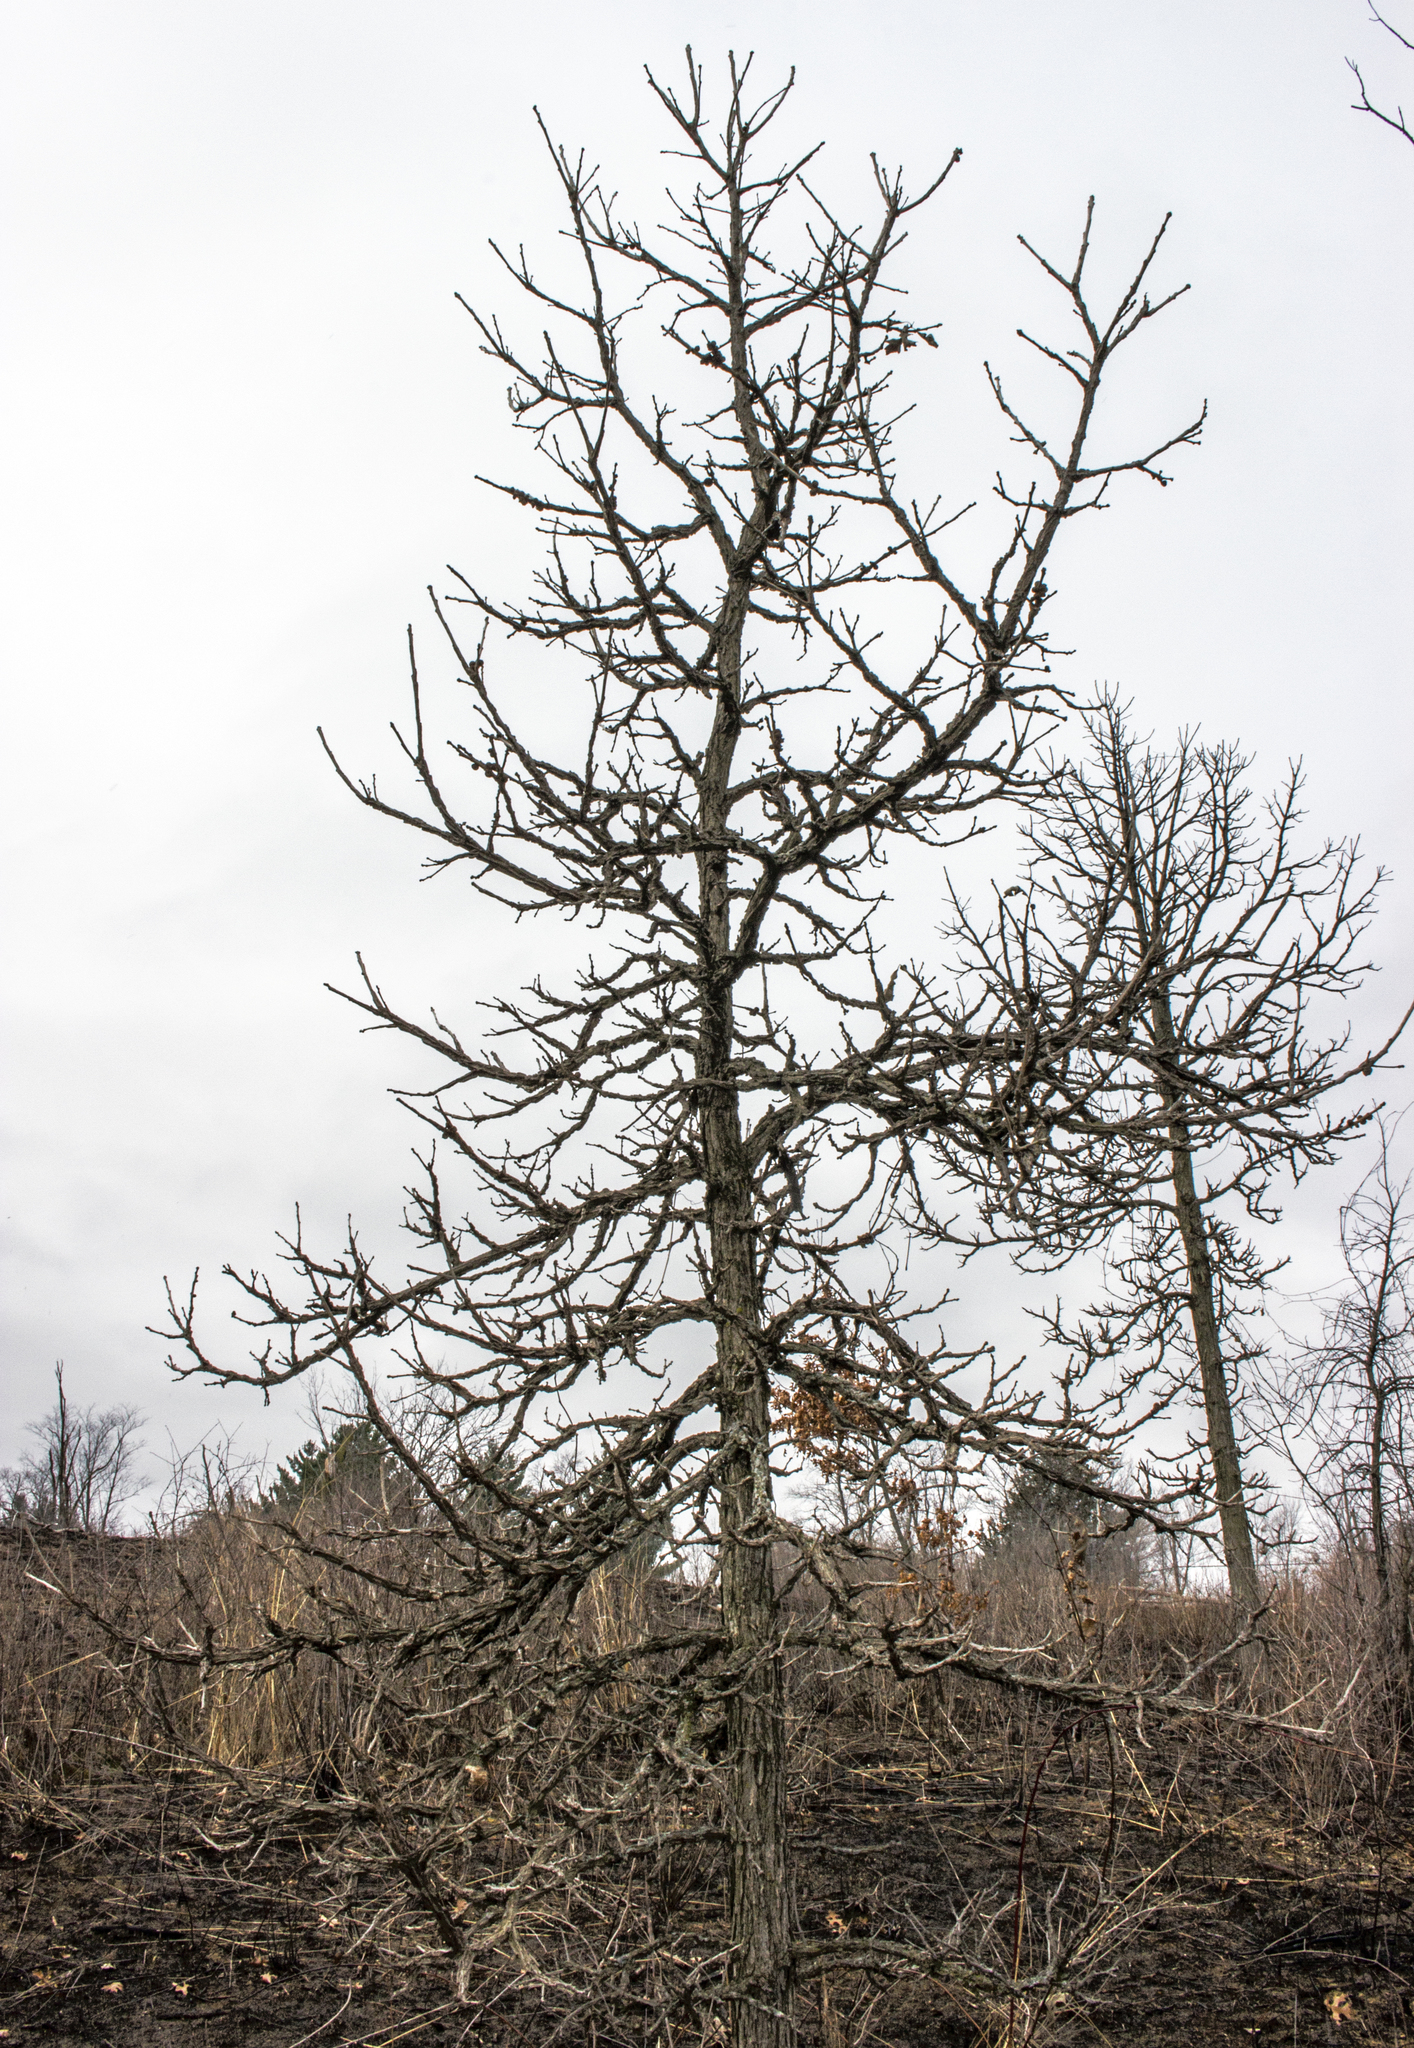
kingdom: Plantae
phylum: Tracheophyta
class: Magnoliopsida
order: Fagales
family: Fagaceae
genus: Quercus
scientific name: Quercus macrocarpa
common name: Bur oak
